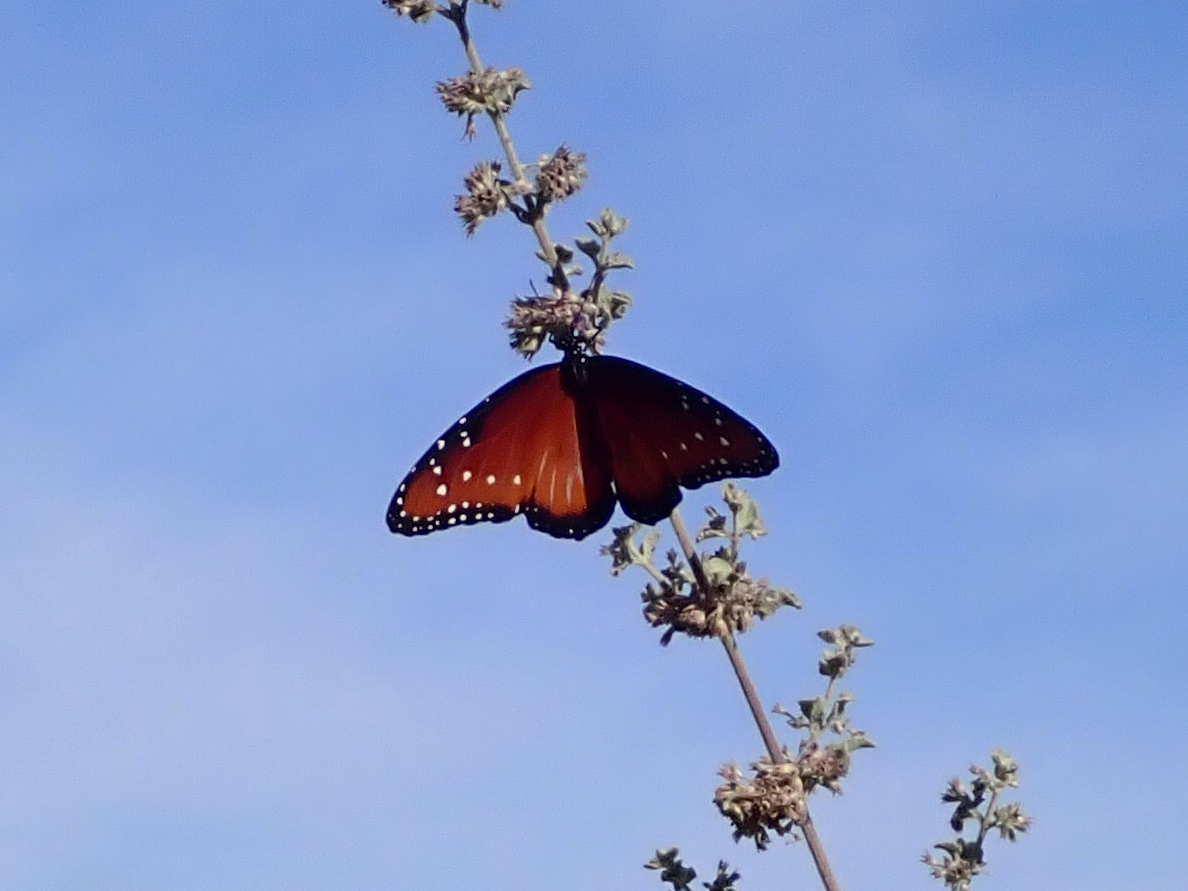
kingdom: Animalia
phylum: Arthropoda
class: Insecta
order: Lepidoptera
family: Nymphalidae
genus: Danaus
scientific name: Danaus gilippus
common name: Queen
